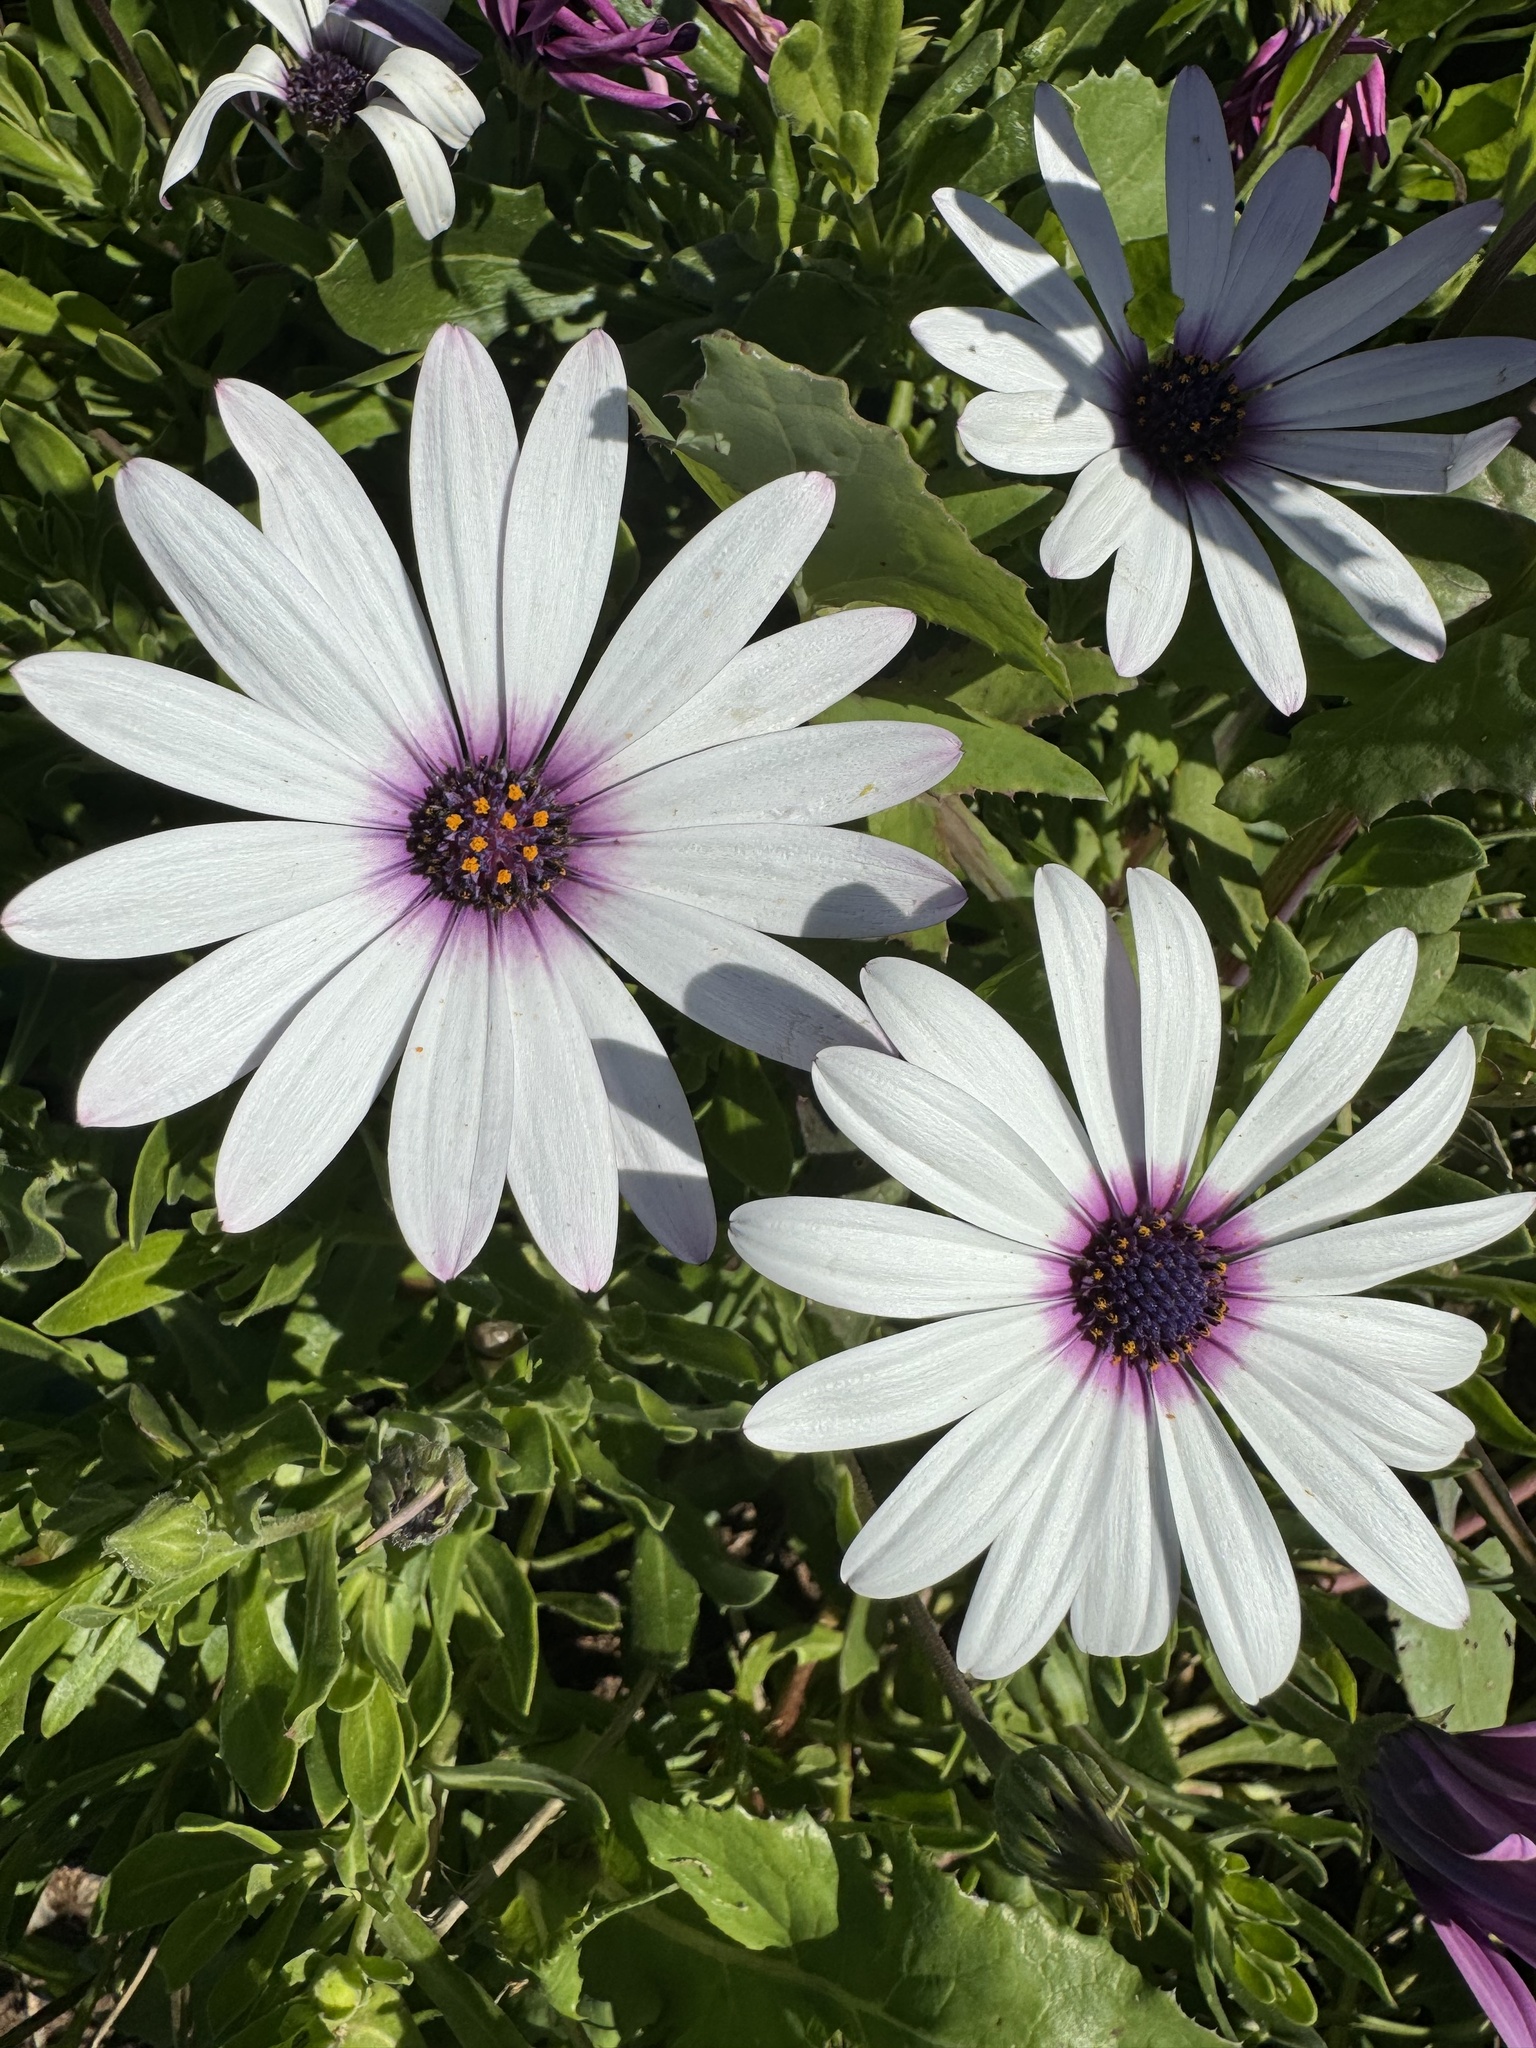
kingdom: Plantae
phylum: Tracheophyta
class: Magnoliopsida
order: Asterales
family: Asteraceae
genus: Dimorphotheca
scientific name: Dimorphotheca fruticosa
